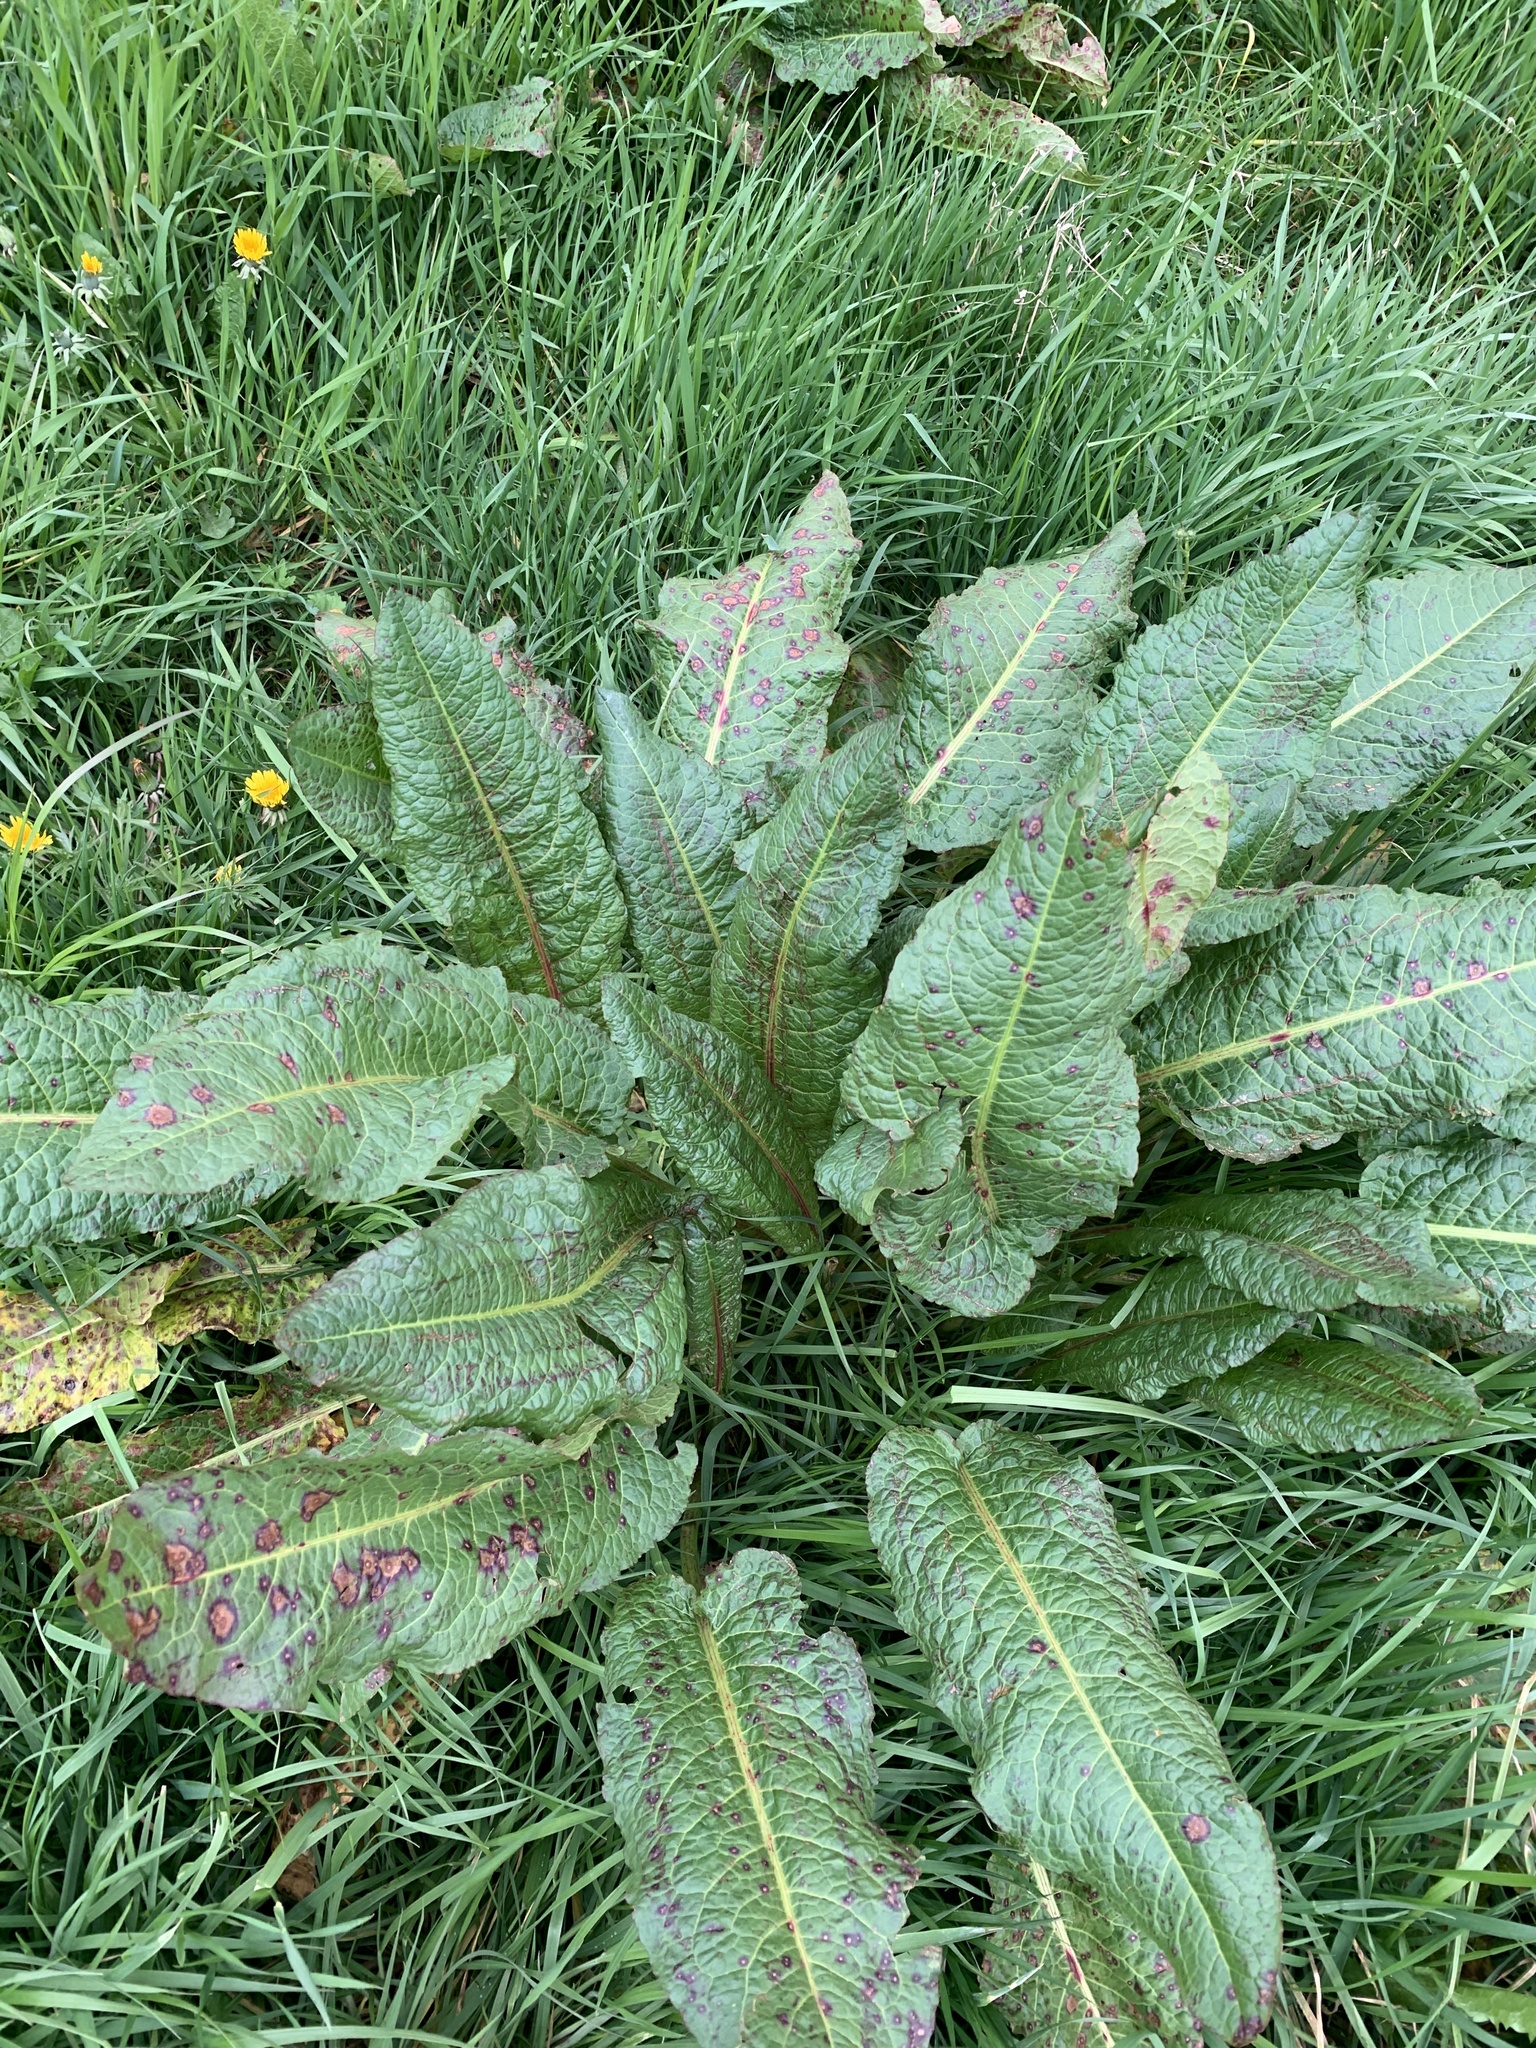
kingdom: Plantae
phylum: Tracheophyta
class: Magnoliopsida
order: Caryophyllales
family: Polygonaceae
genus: Rumex
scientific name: Rumex obtusifolius
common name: Bitter dock
